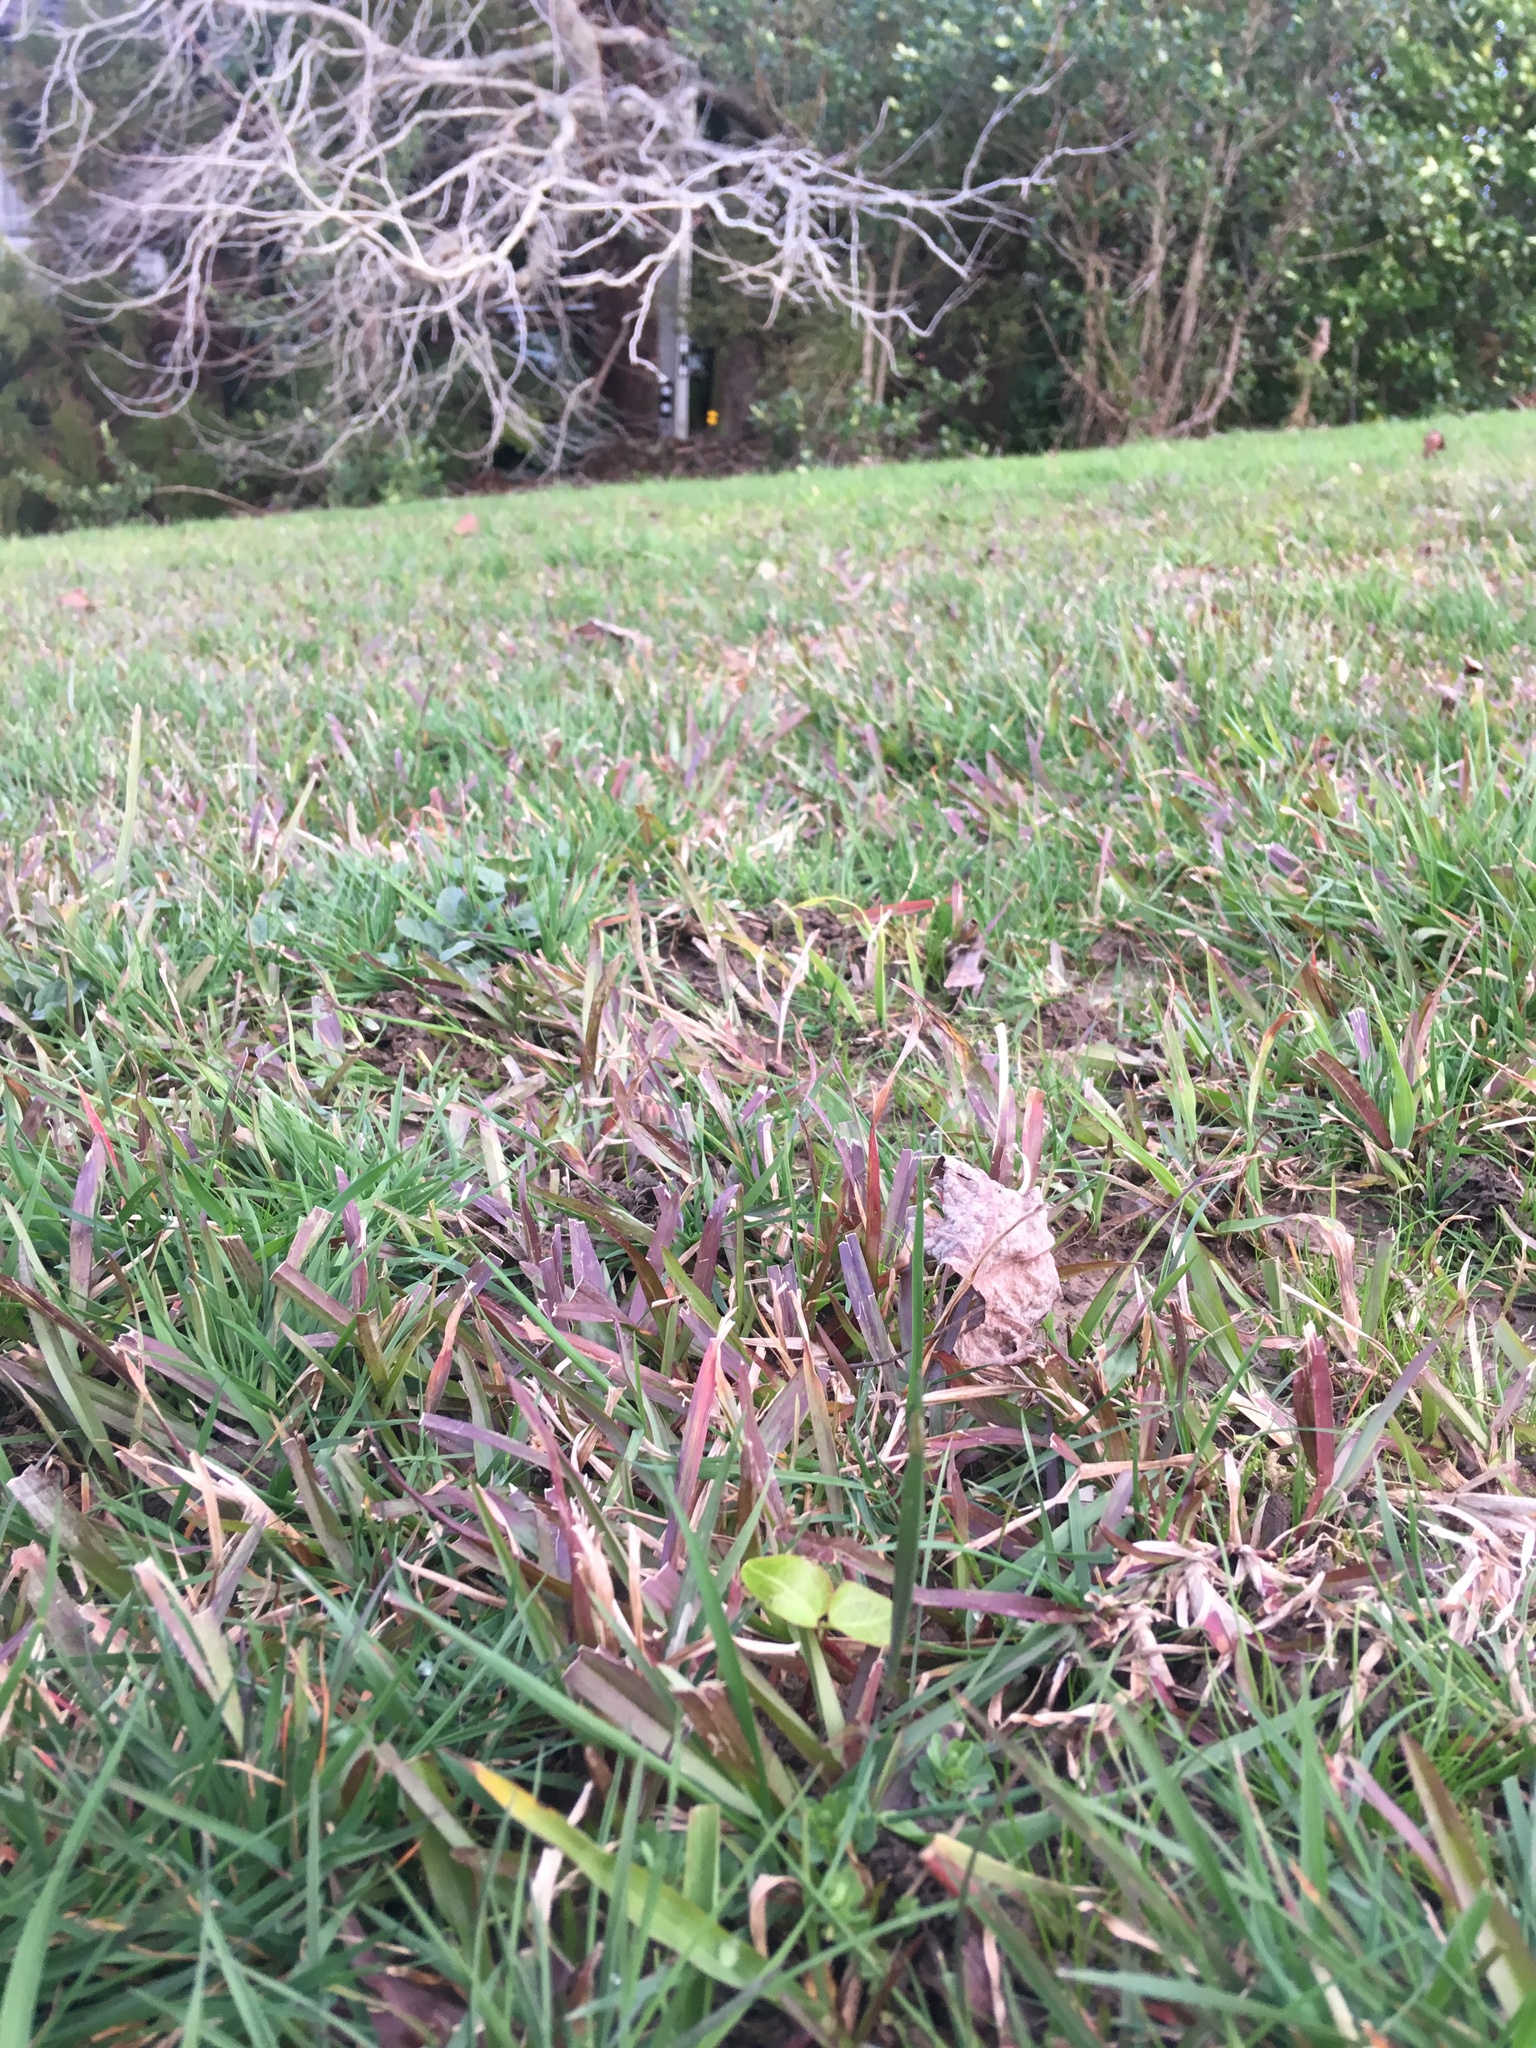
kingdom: Plantae
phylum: Tracheophyta
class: Magnoliopsida
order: Apiales
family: Araliaceae
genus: Hedera
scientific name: Hedera helix
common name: Ivy
